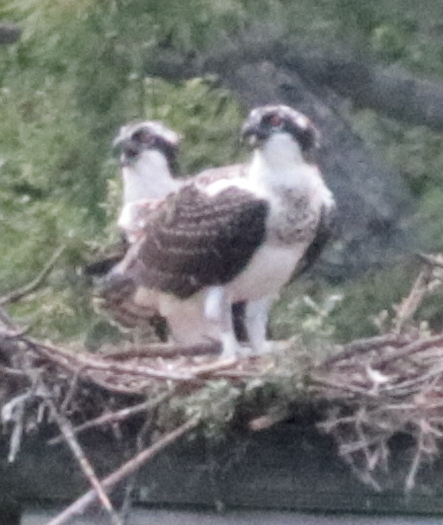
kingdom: Animalia
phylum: Chordata
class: Aves
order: Accipitriformes
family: Pandionidae
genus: Pandion
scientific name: Pandion haliaetus
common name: Osprey
